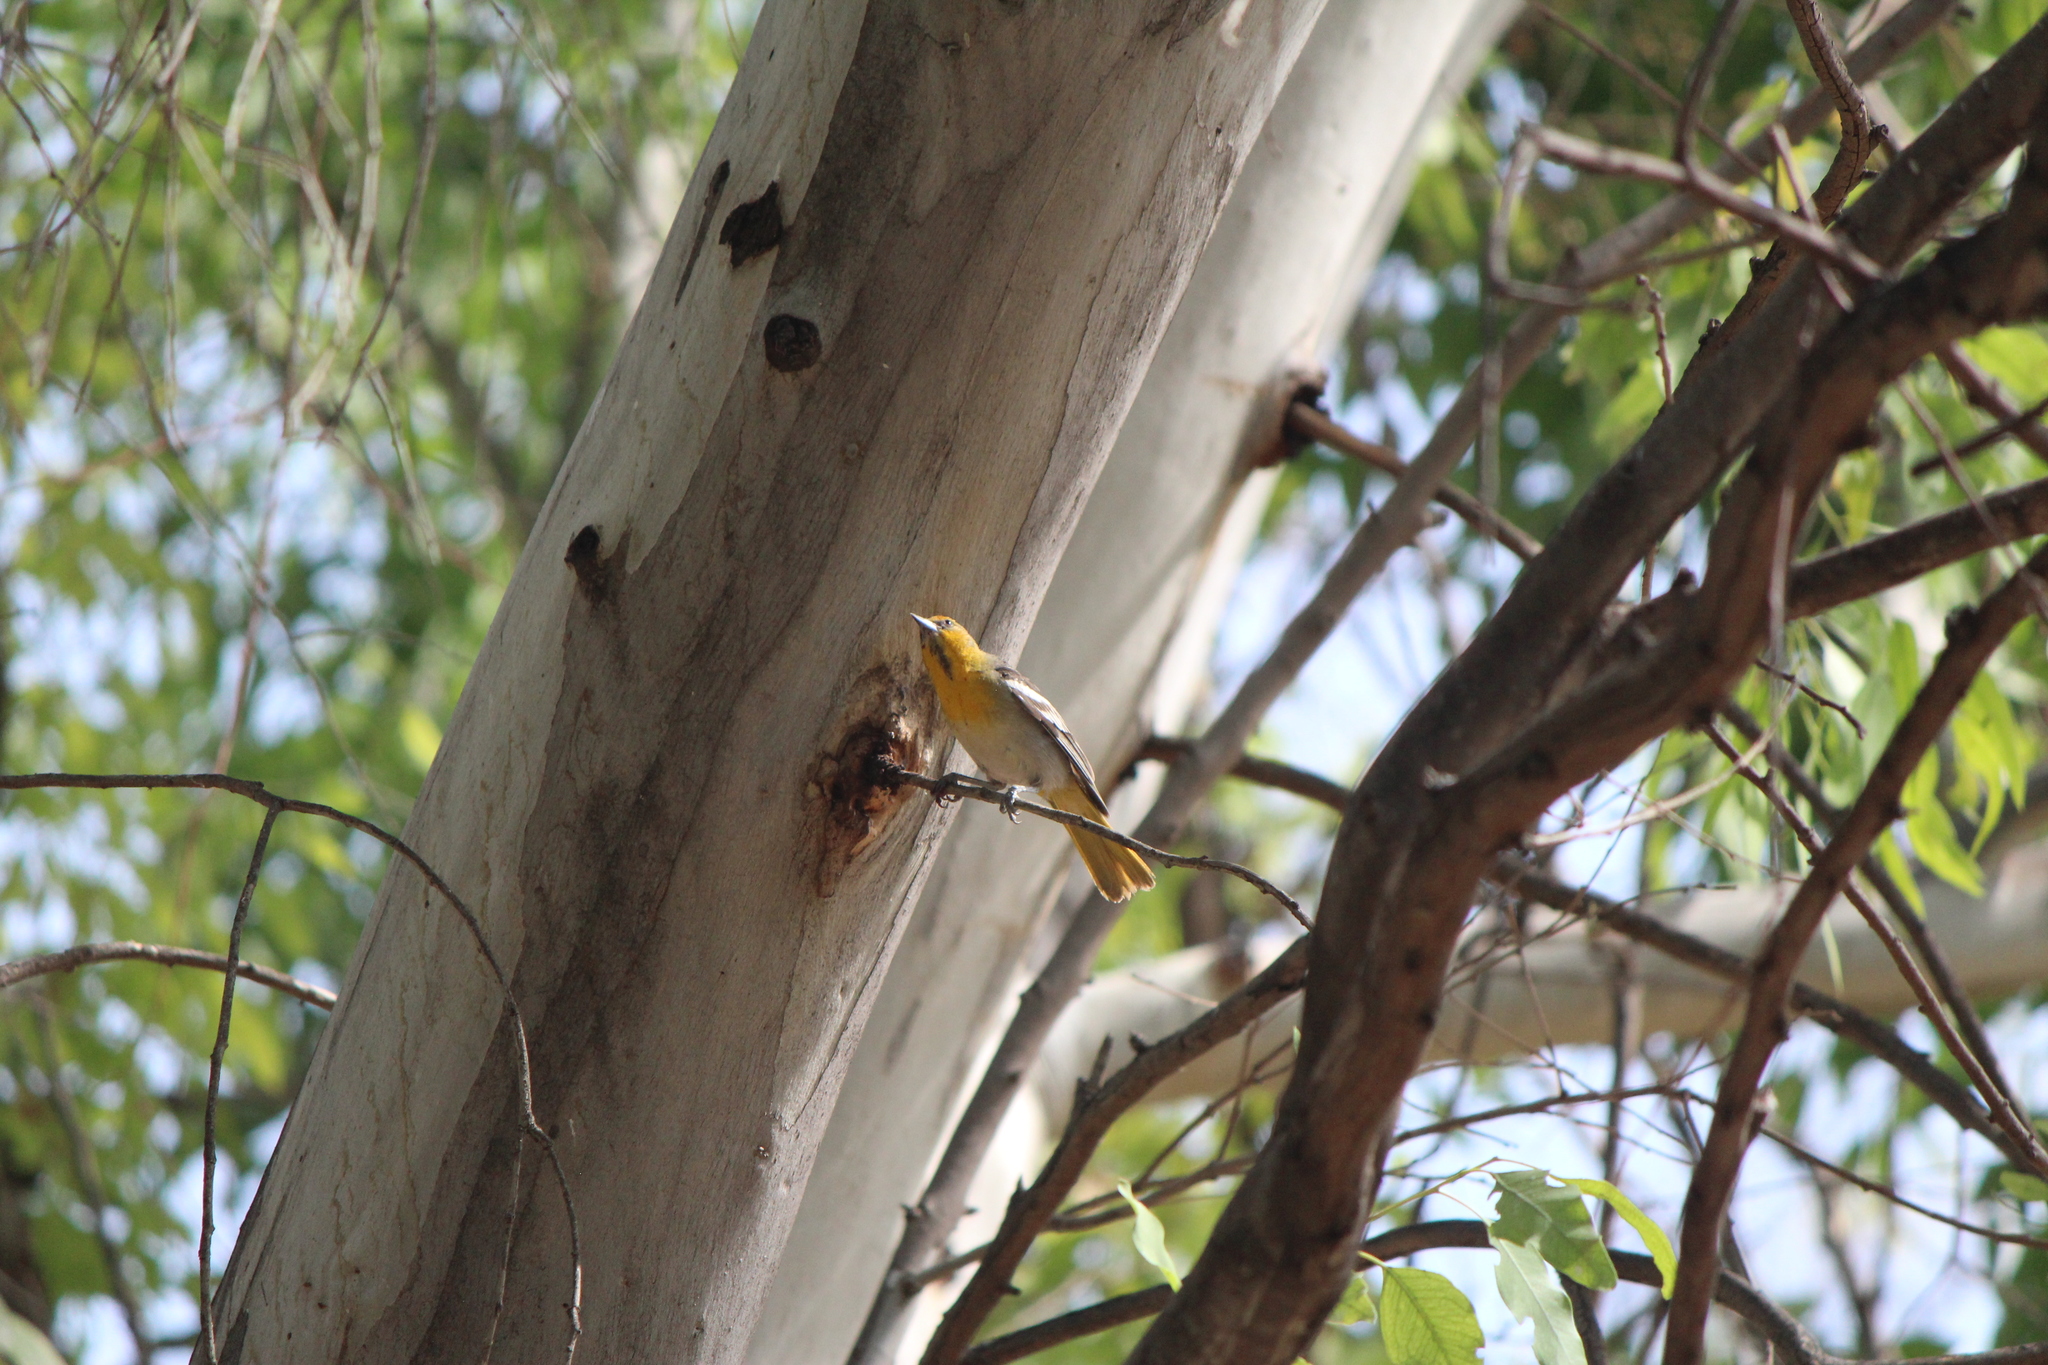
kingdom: Animalia
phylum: Chordata
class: Aves
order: Passeriformes
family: Icteridae
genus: Icterus
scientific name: Icterus abeillei
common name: Black-backed oriole
